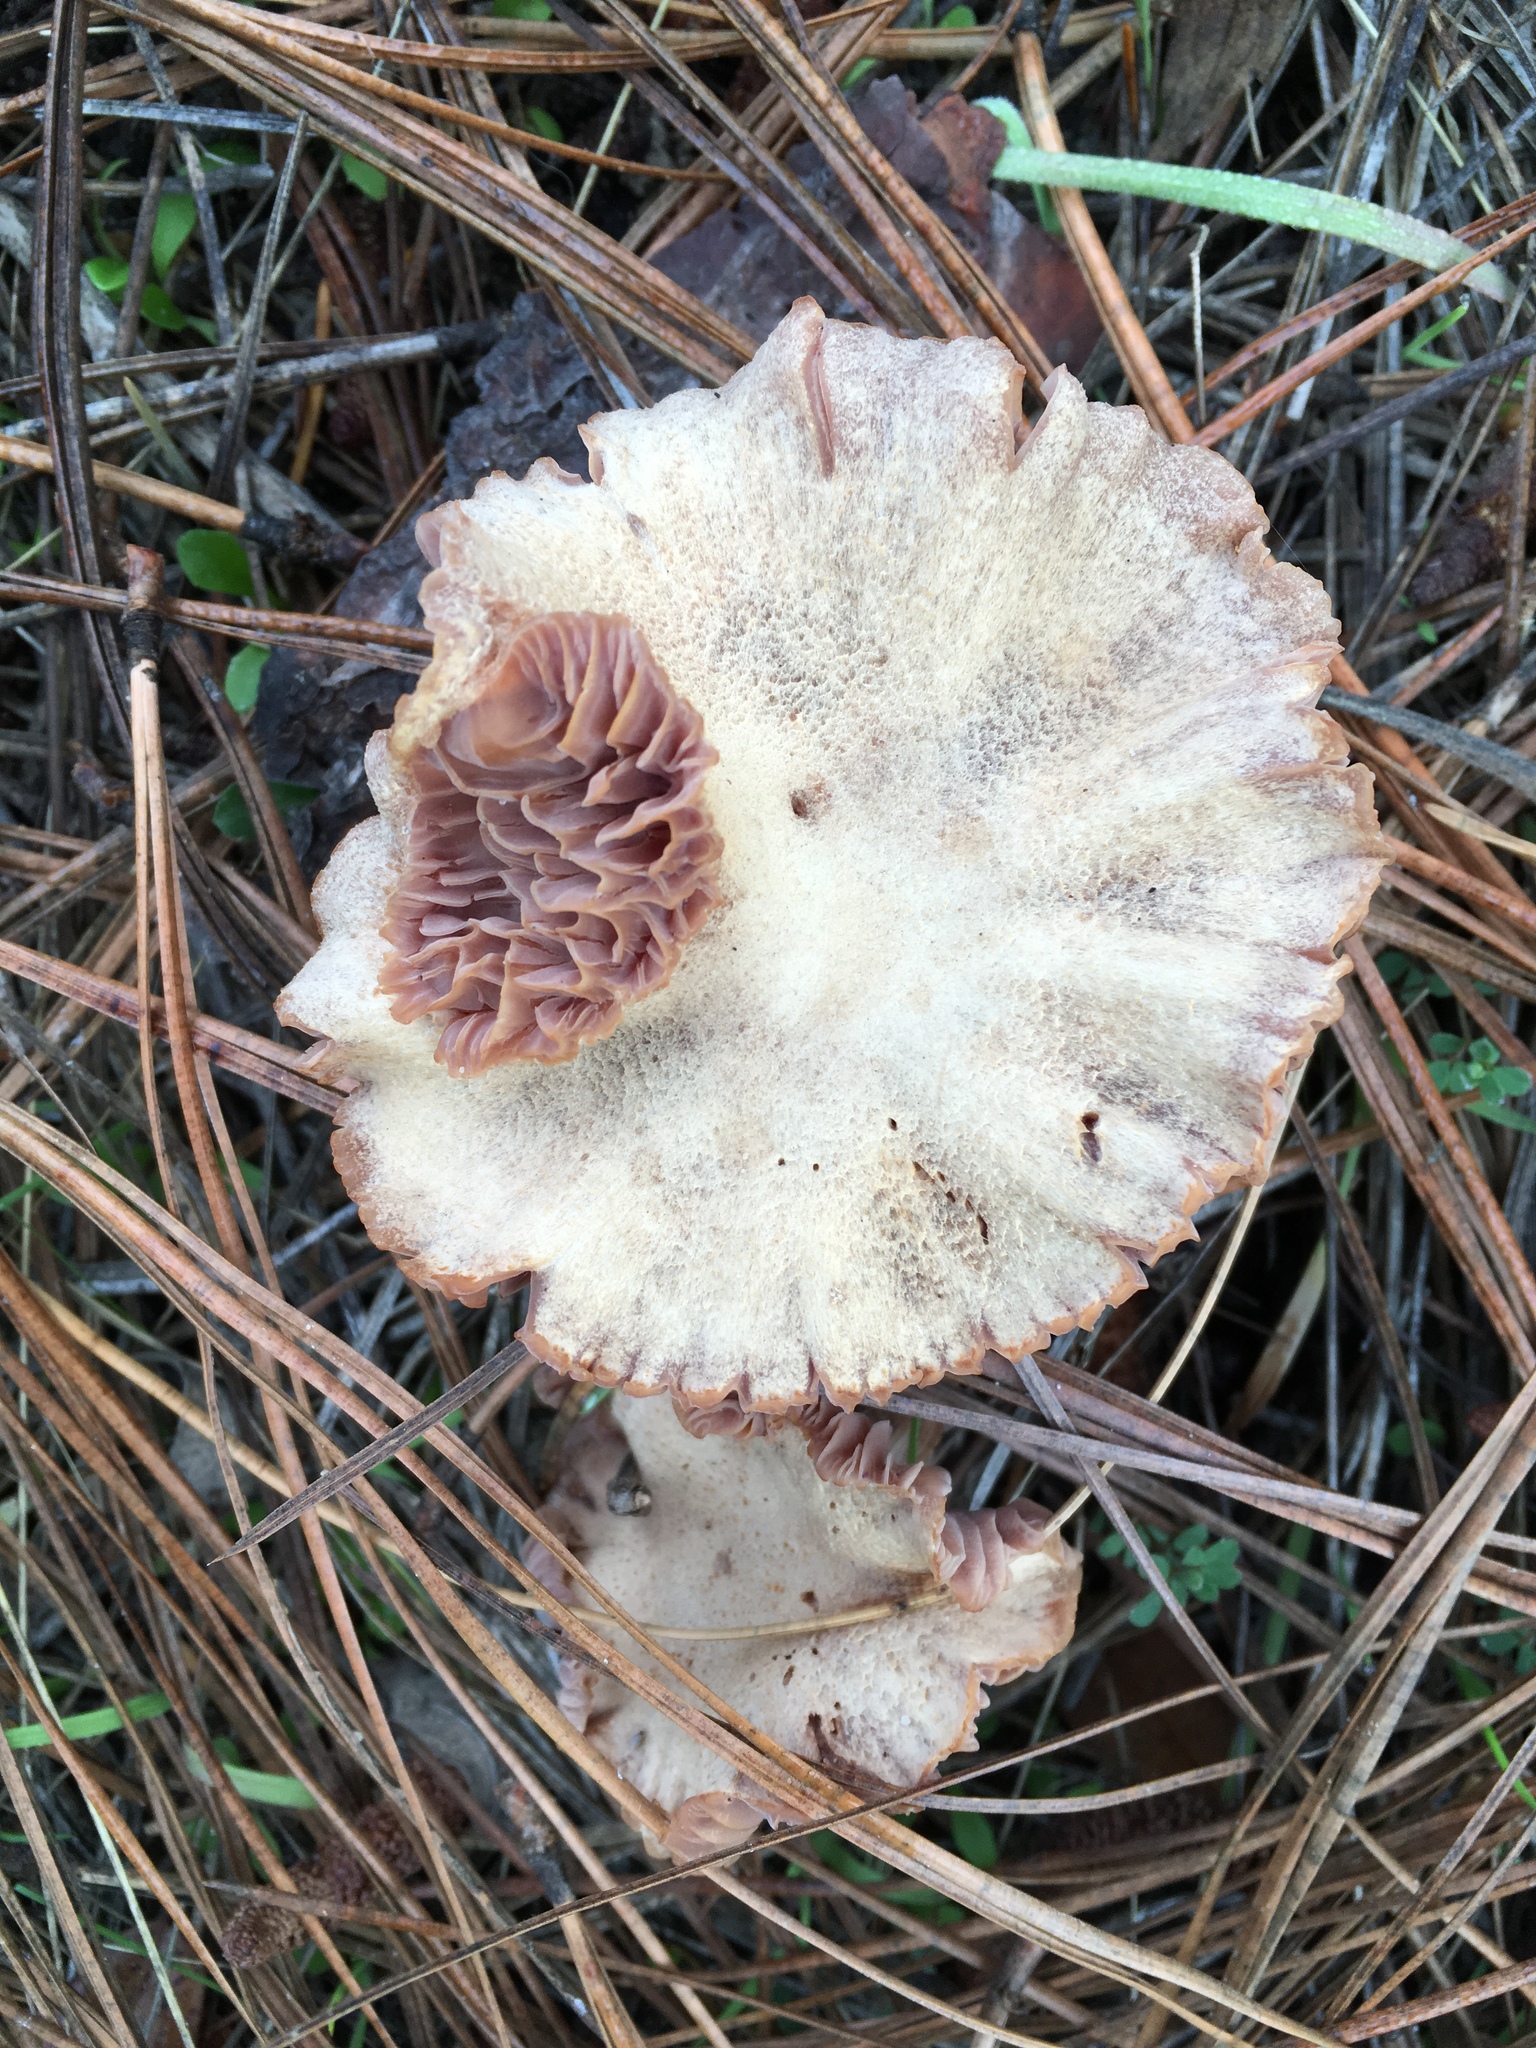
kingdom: Fungi
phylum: Basidiomycota
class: Agaricomycetes
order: Agaricales
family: Hydnangiaceae
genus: Laccaria
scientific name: Laccaria amethysteo-occidentalis
